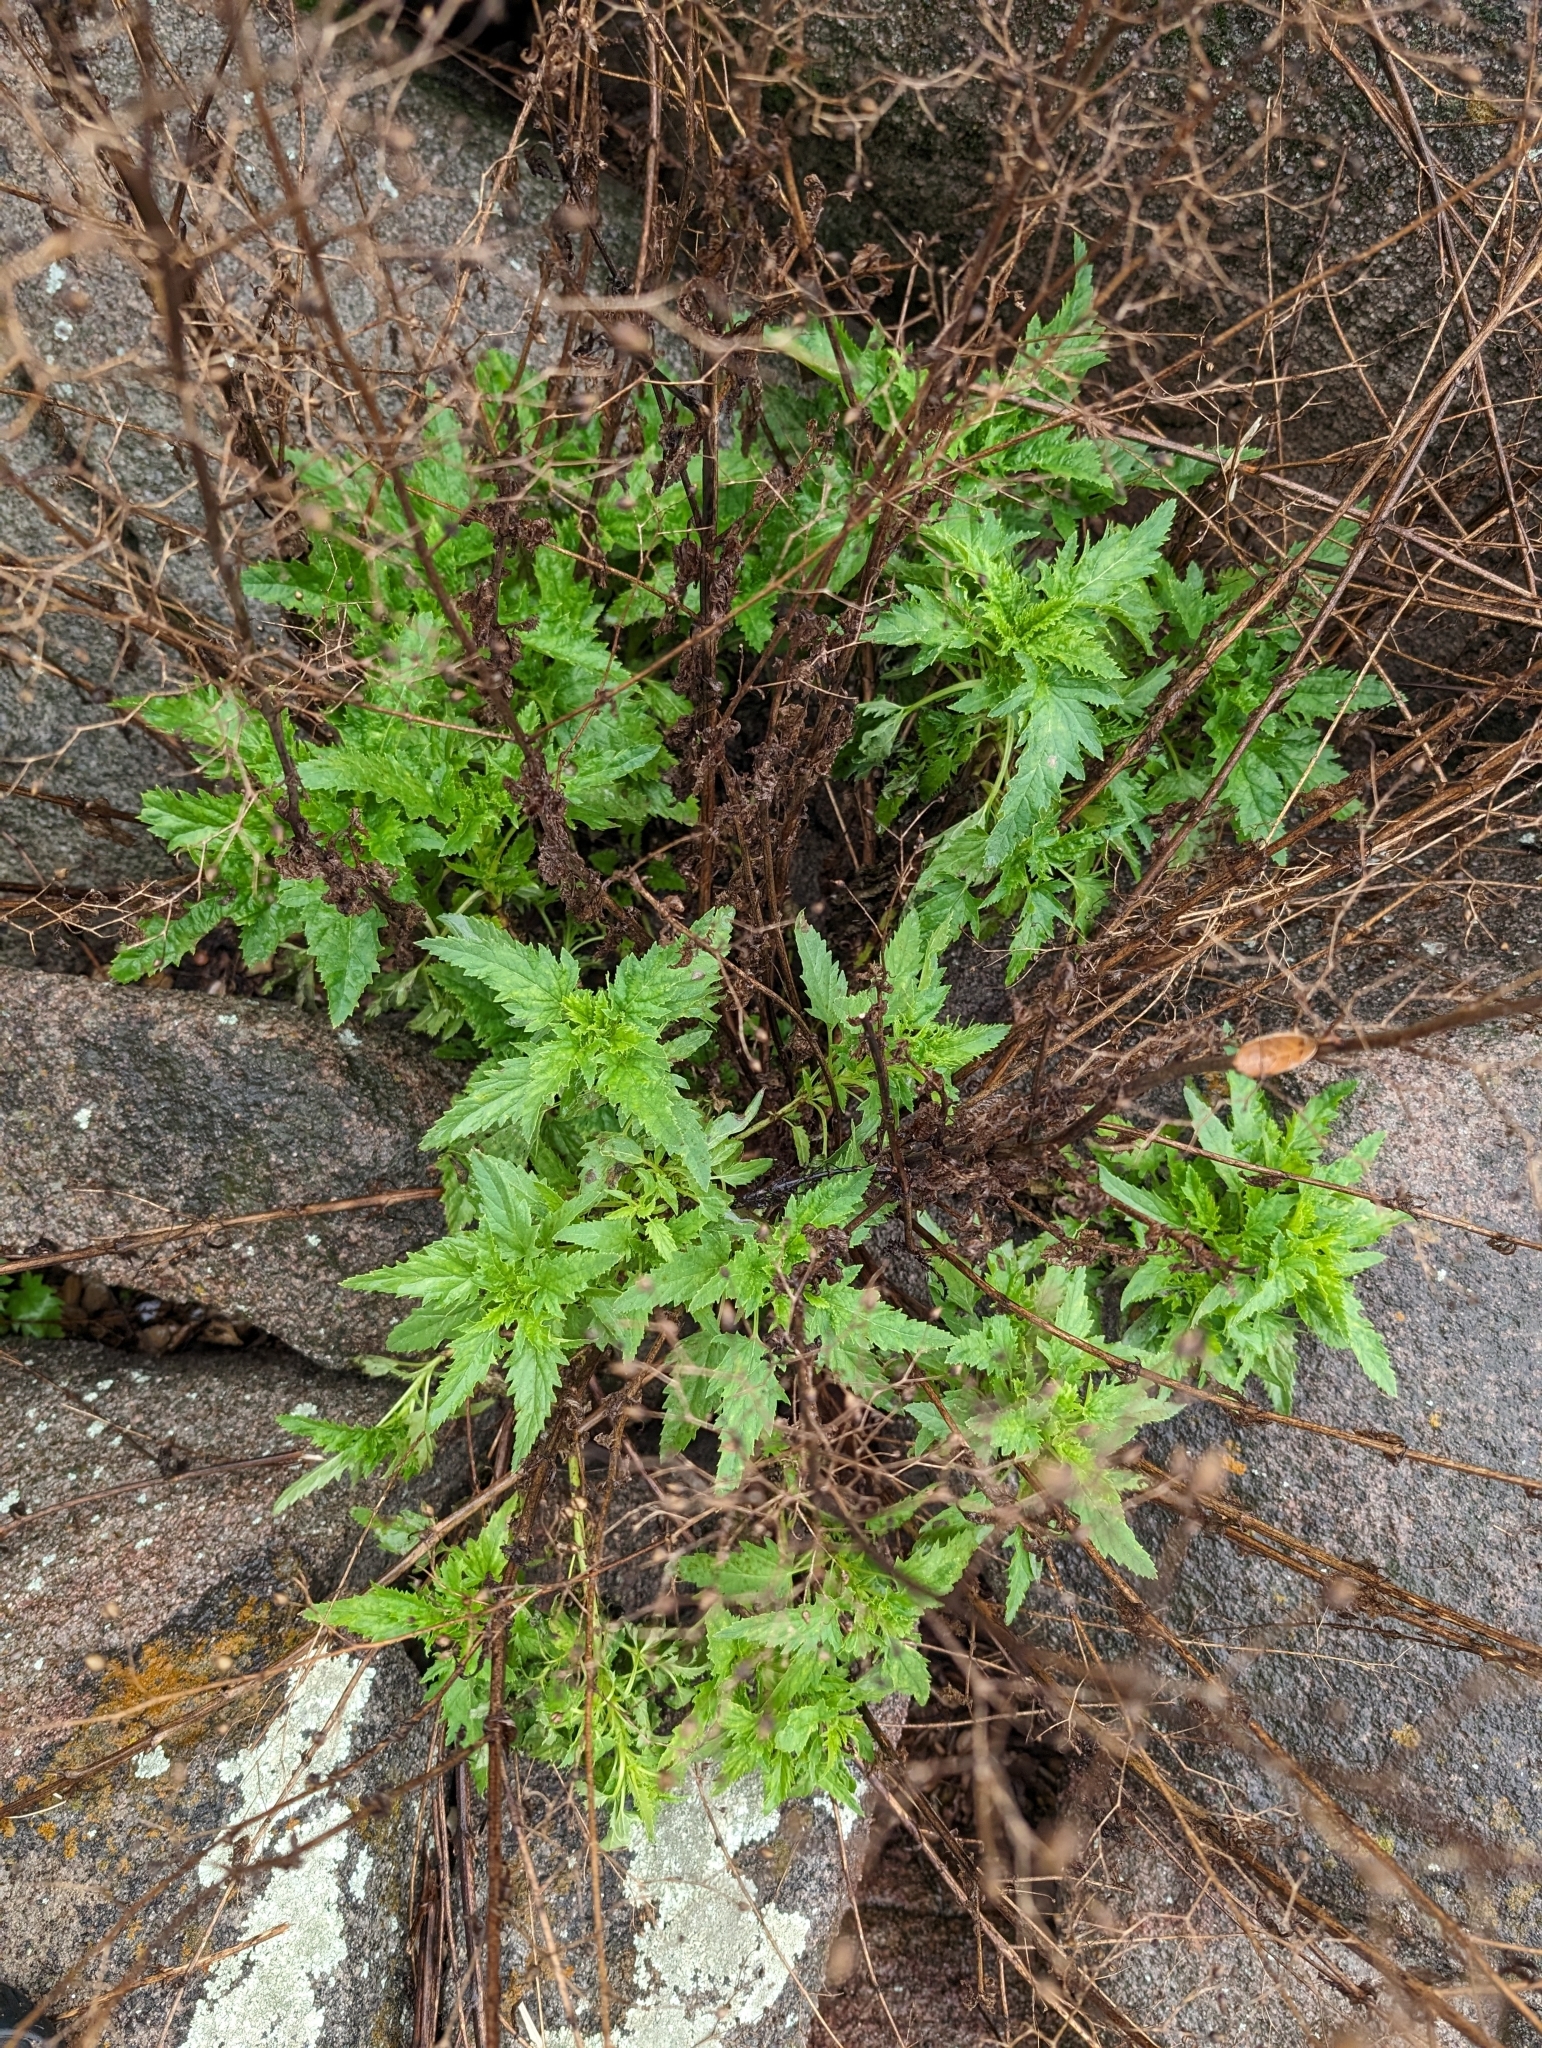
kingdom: Plantae
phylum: Tracheophyta
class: Magnoliopsida
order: Lamiales
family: Scrophulariaceae
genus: Scrophularia
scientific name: Scrophularia californica
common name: California figwort
